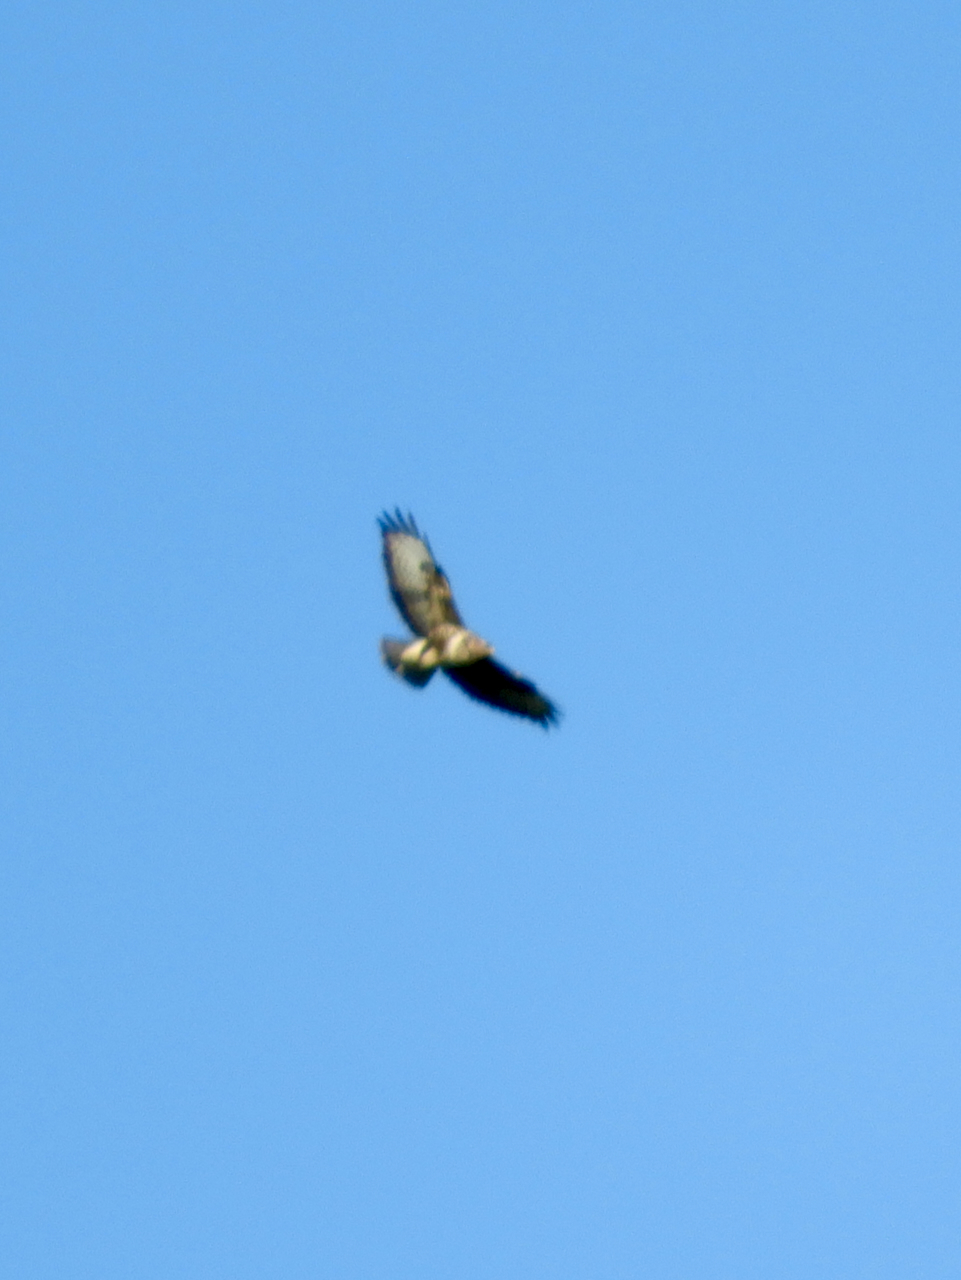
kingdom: Animalia
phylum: Chordata
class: Aves
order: Accipitriformes
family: Accipitridae
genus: Buteo
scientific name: Buteo buteo
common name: Common buzzard
